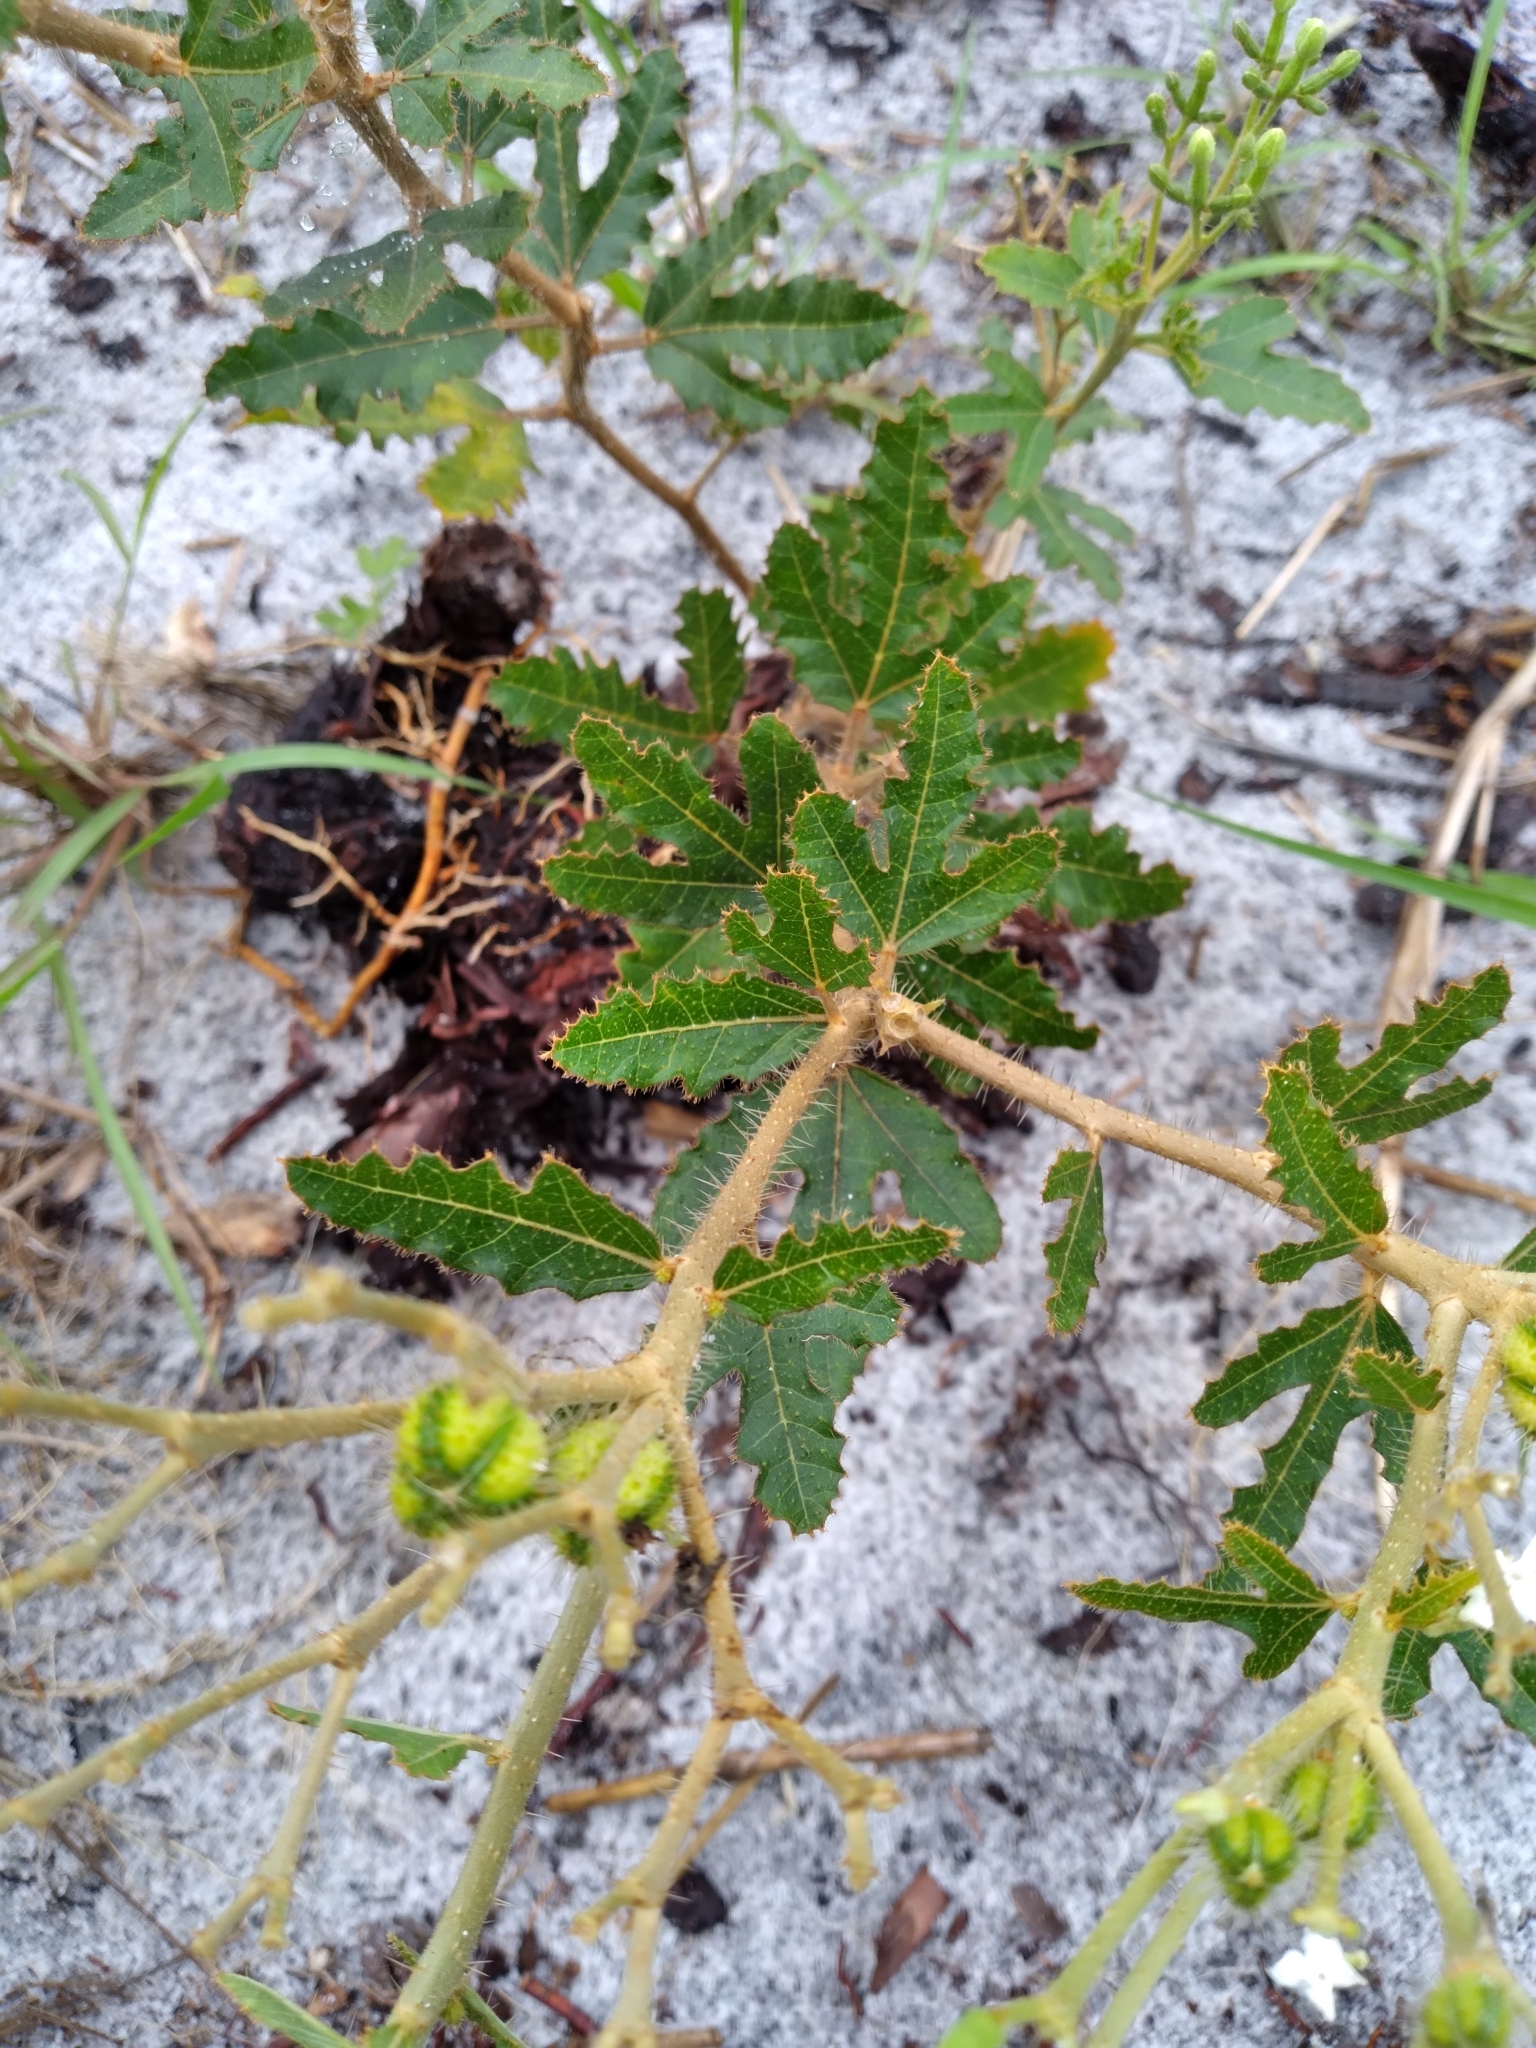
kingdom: Plantae
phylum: Tracheophyta
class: Magnoliopsida
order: Malpighiales
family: Euphorbiaceae
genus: Cnidoscolus
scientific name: Cnidoscolus stimulosus
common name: Bull-nettle
